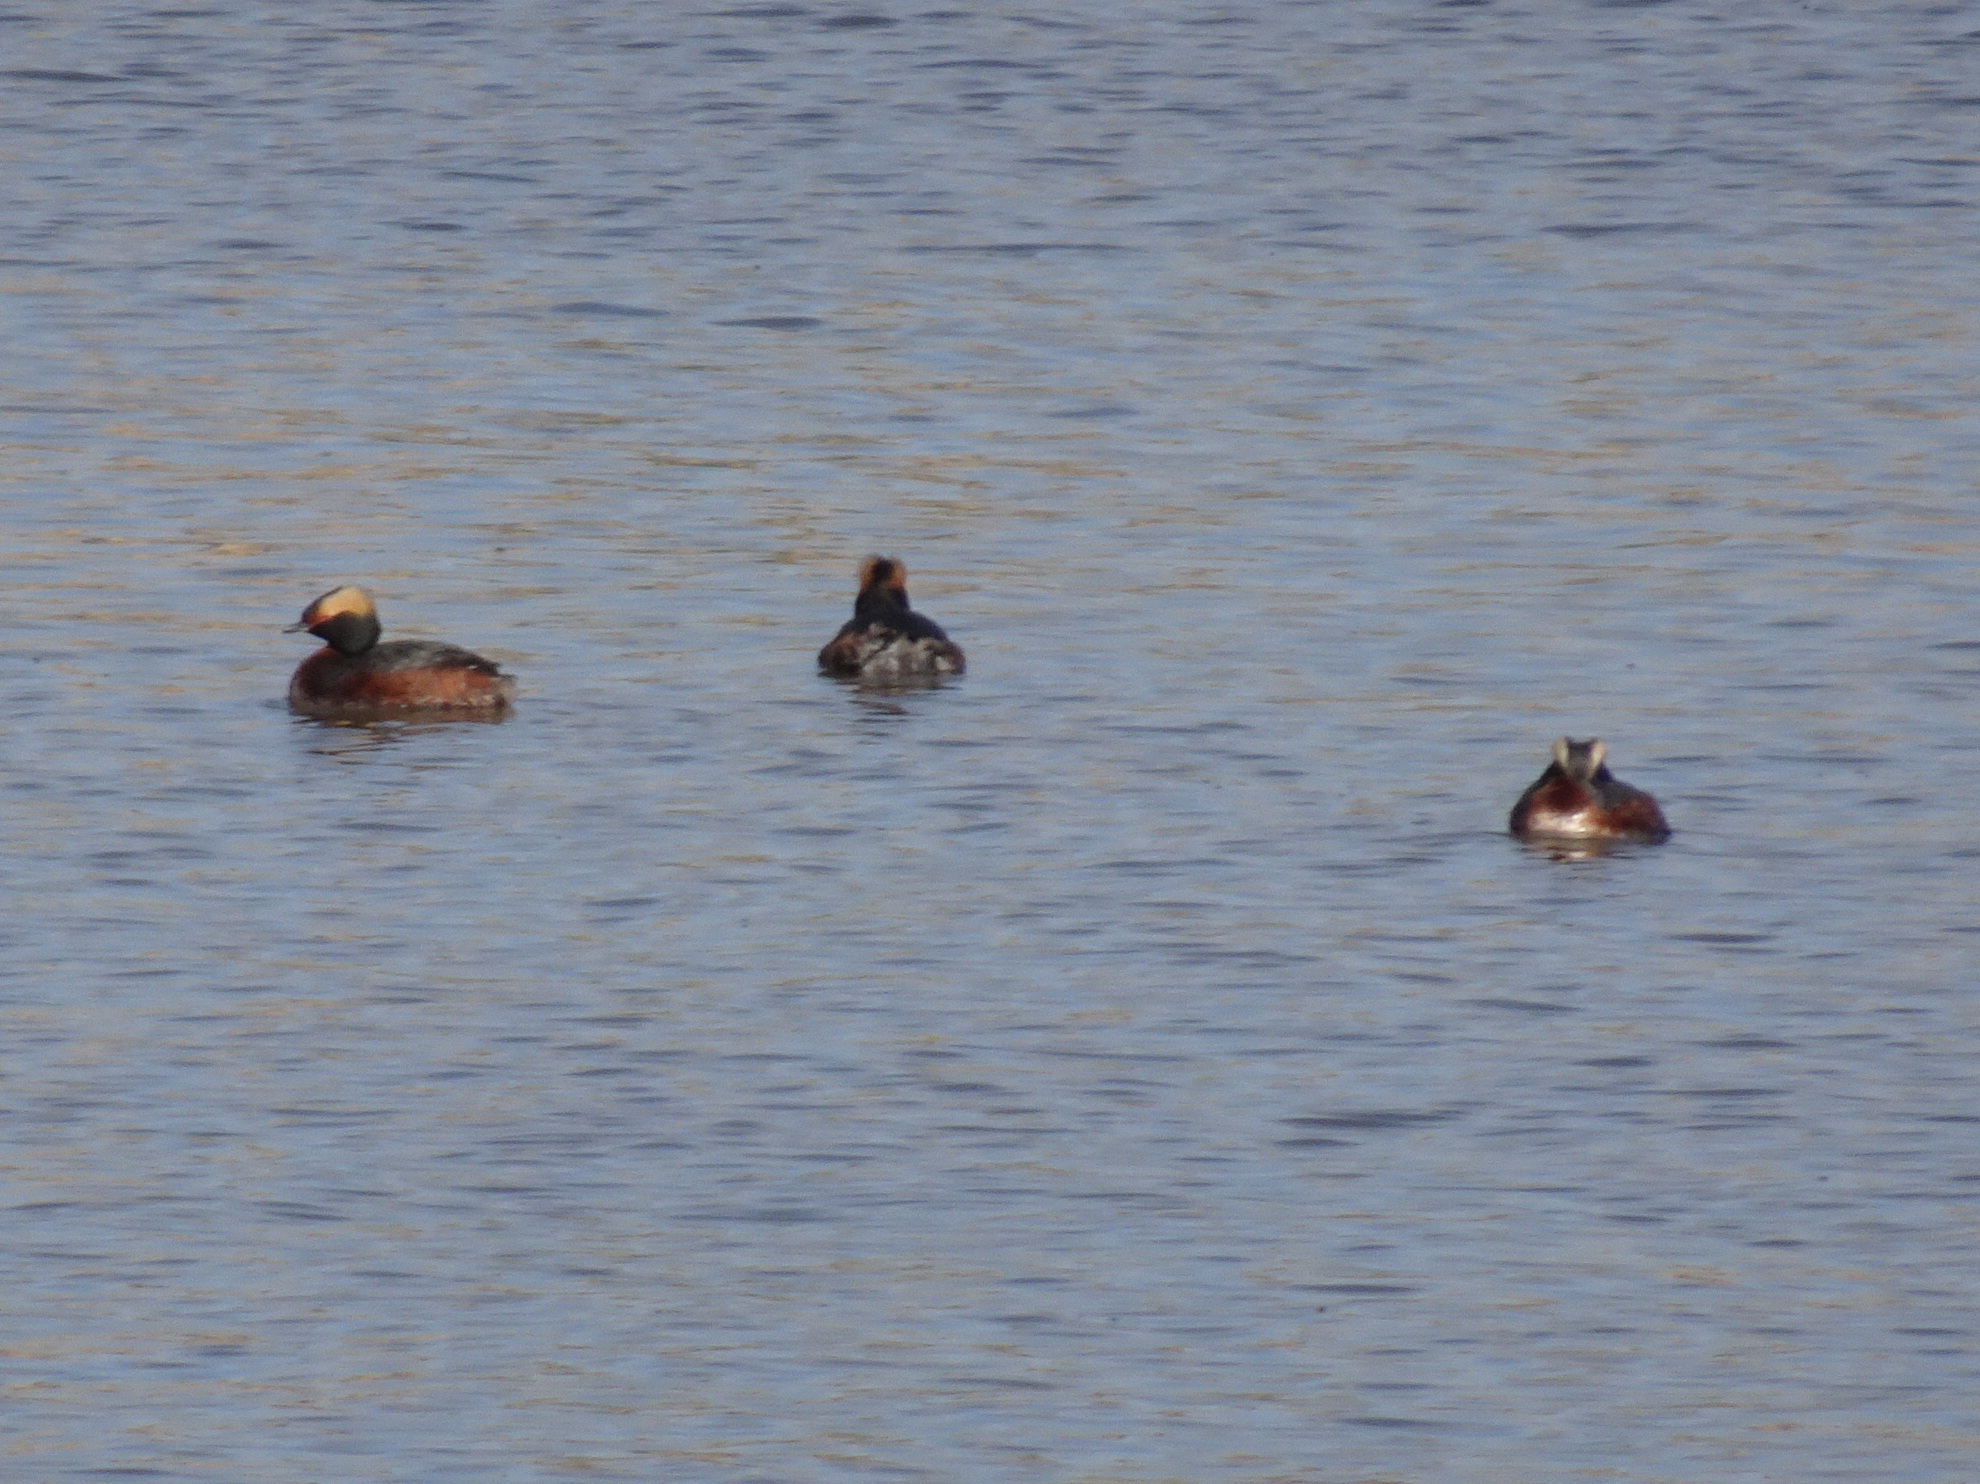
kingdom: Animalia
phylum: Chordata
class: Aves
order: Podicipediformes
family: Podicipedidae
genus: Podiceps
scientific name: Podiceps auritus
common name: Horned grebe
